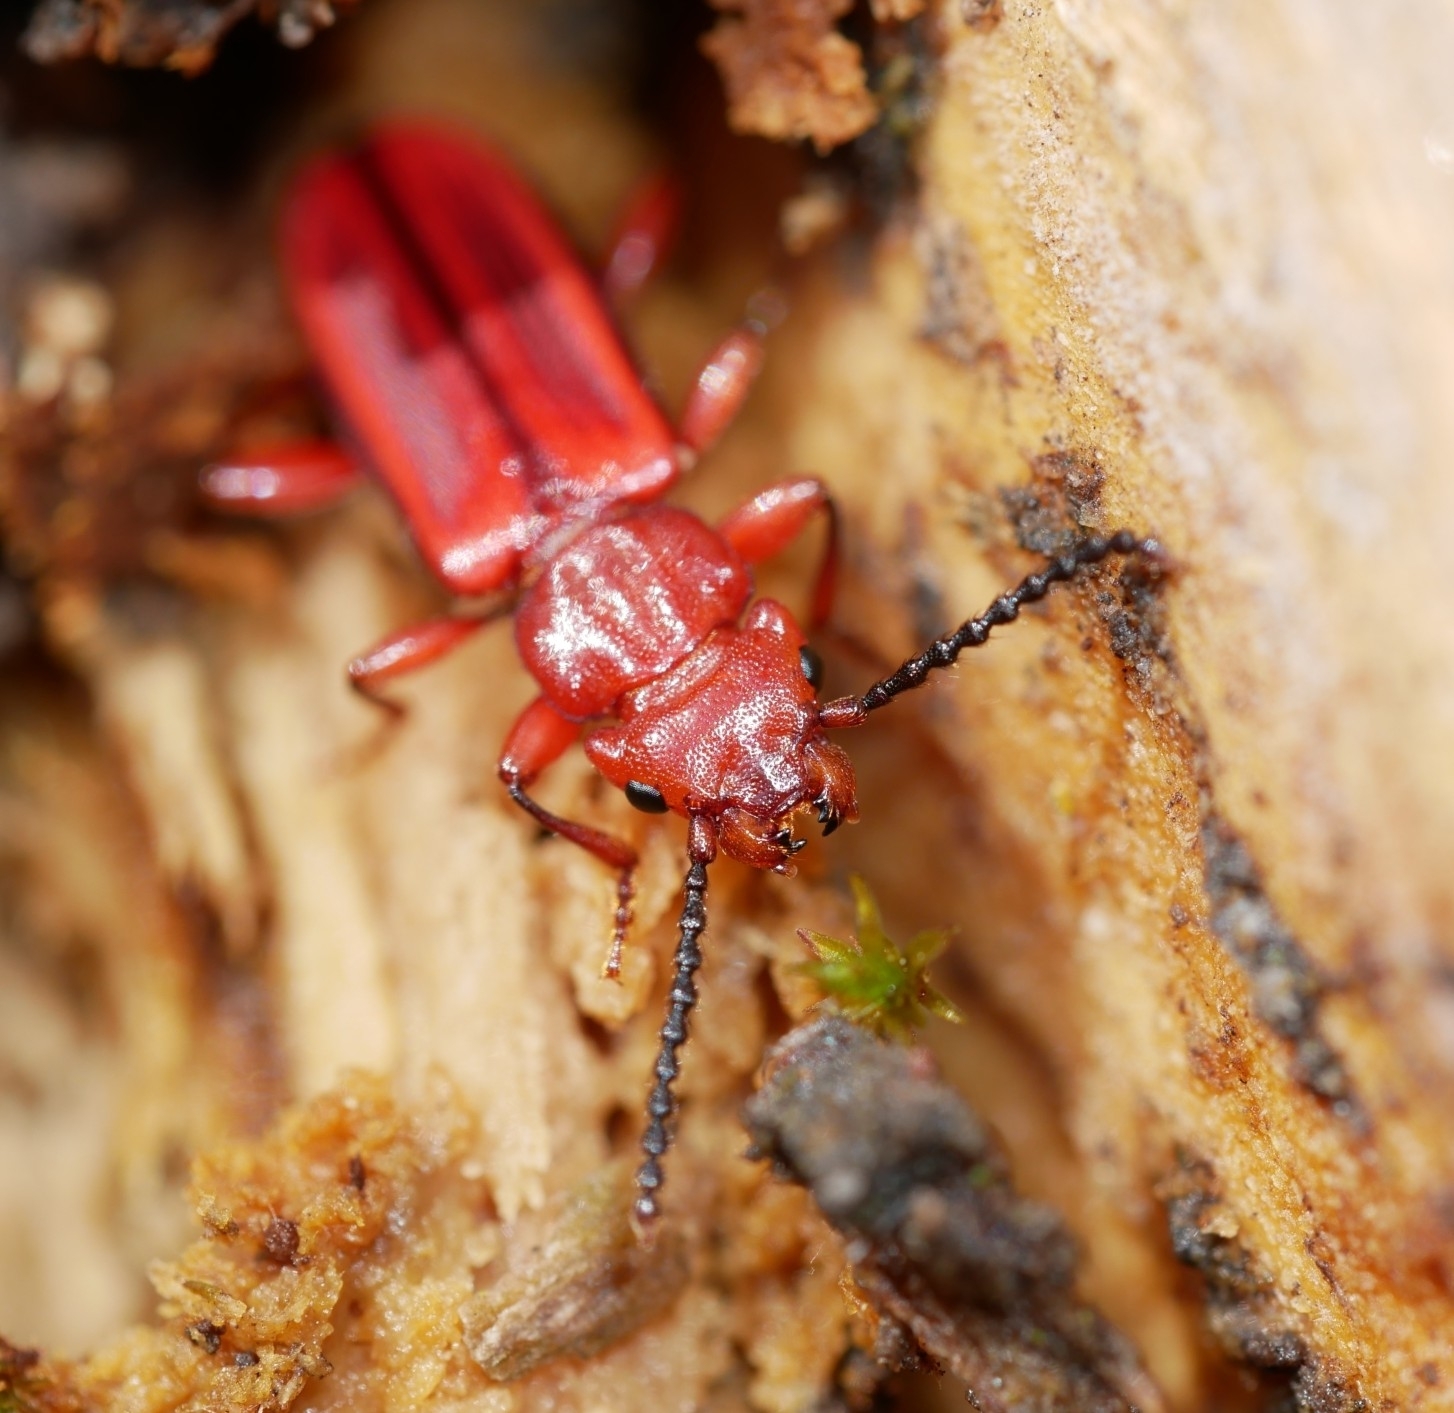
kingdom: Animalia
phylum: Arthropoda
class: Insecta
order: Coleoptera
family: Cucujidae
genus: Cucujus
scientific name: Cucujus clavipes
